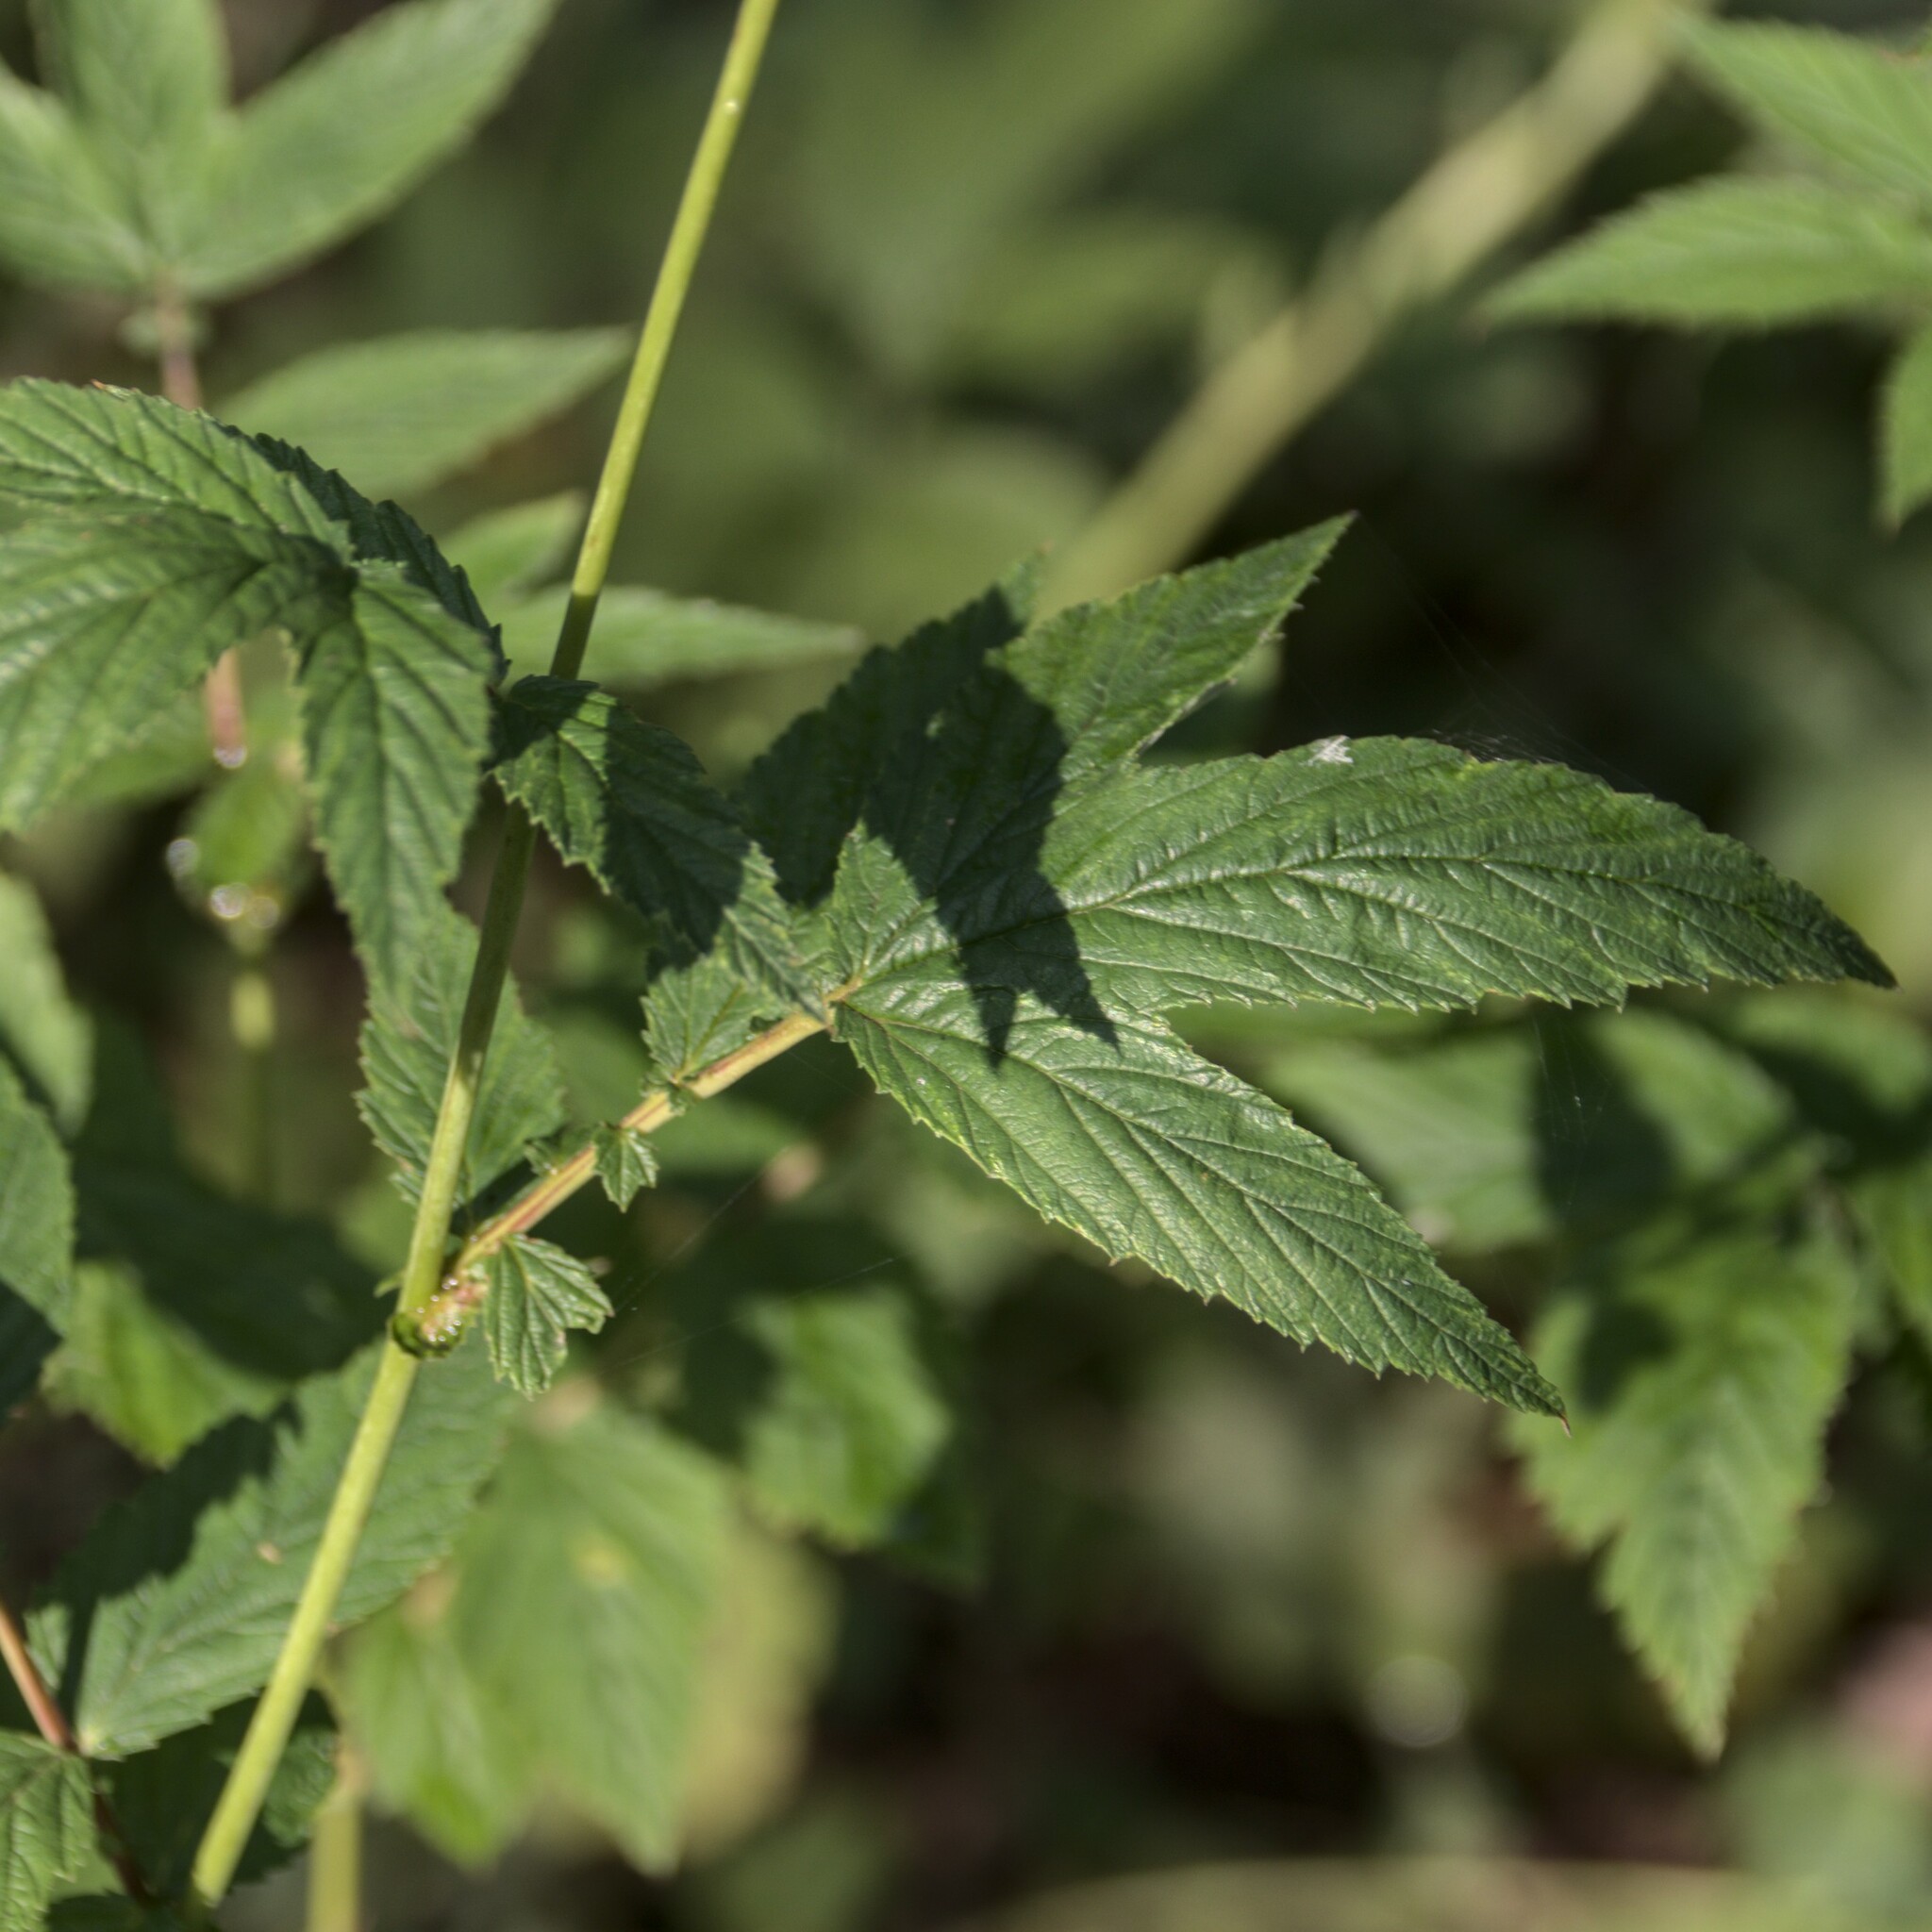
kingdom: Plantae
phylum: Tracheophyta
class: Magnoliopsida
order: Rosales
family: Rosaceae
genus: Filipendula
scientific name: Filipendula ulmaria
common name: Meadowsweet
